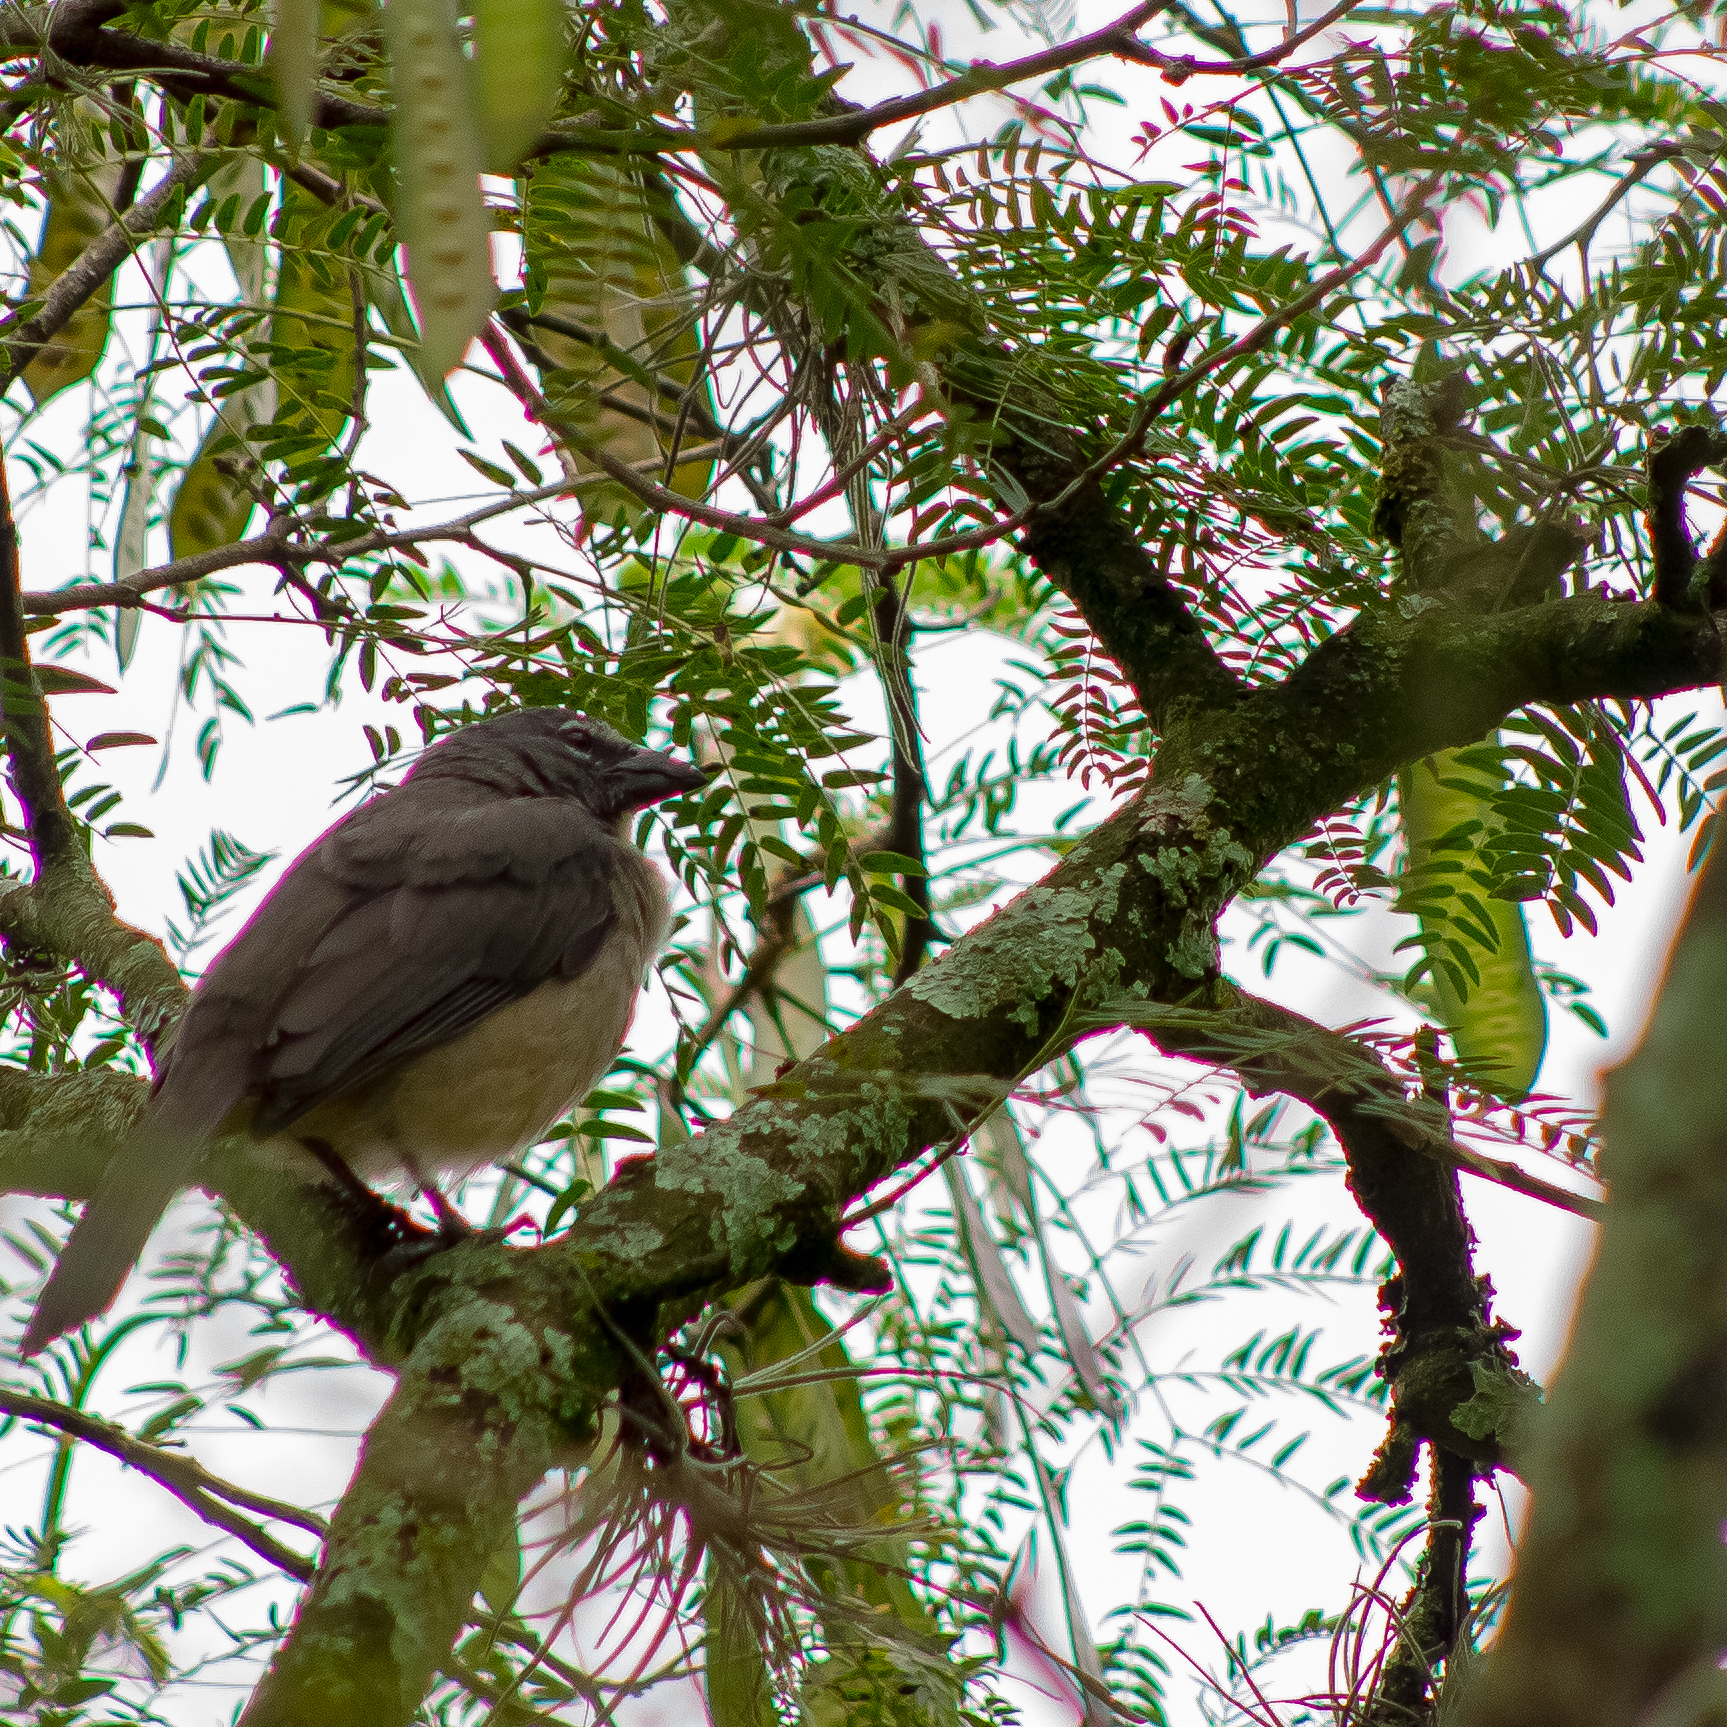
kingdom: Animalia
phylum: Chordata
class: Aves
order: Passeriformes
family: Thraupidae
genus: Saltator
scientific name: Saltator olivascens
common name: Caribbean grey saltator
